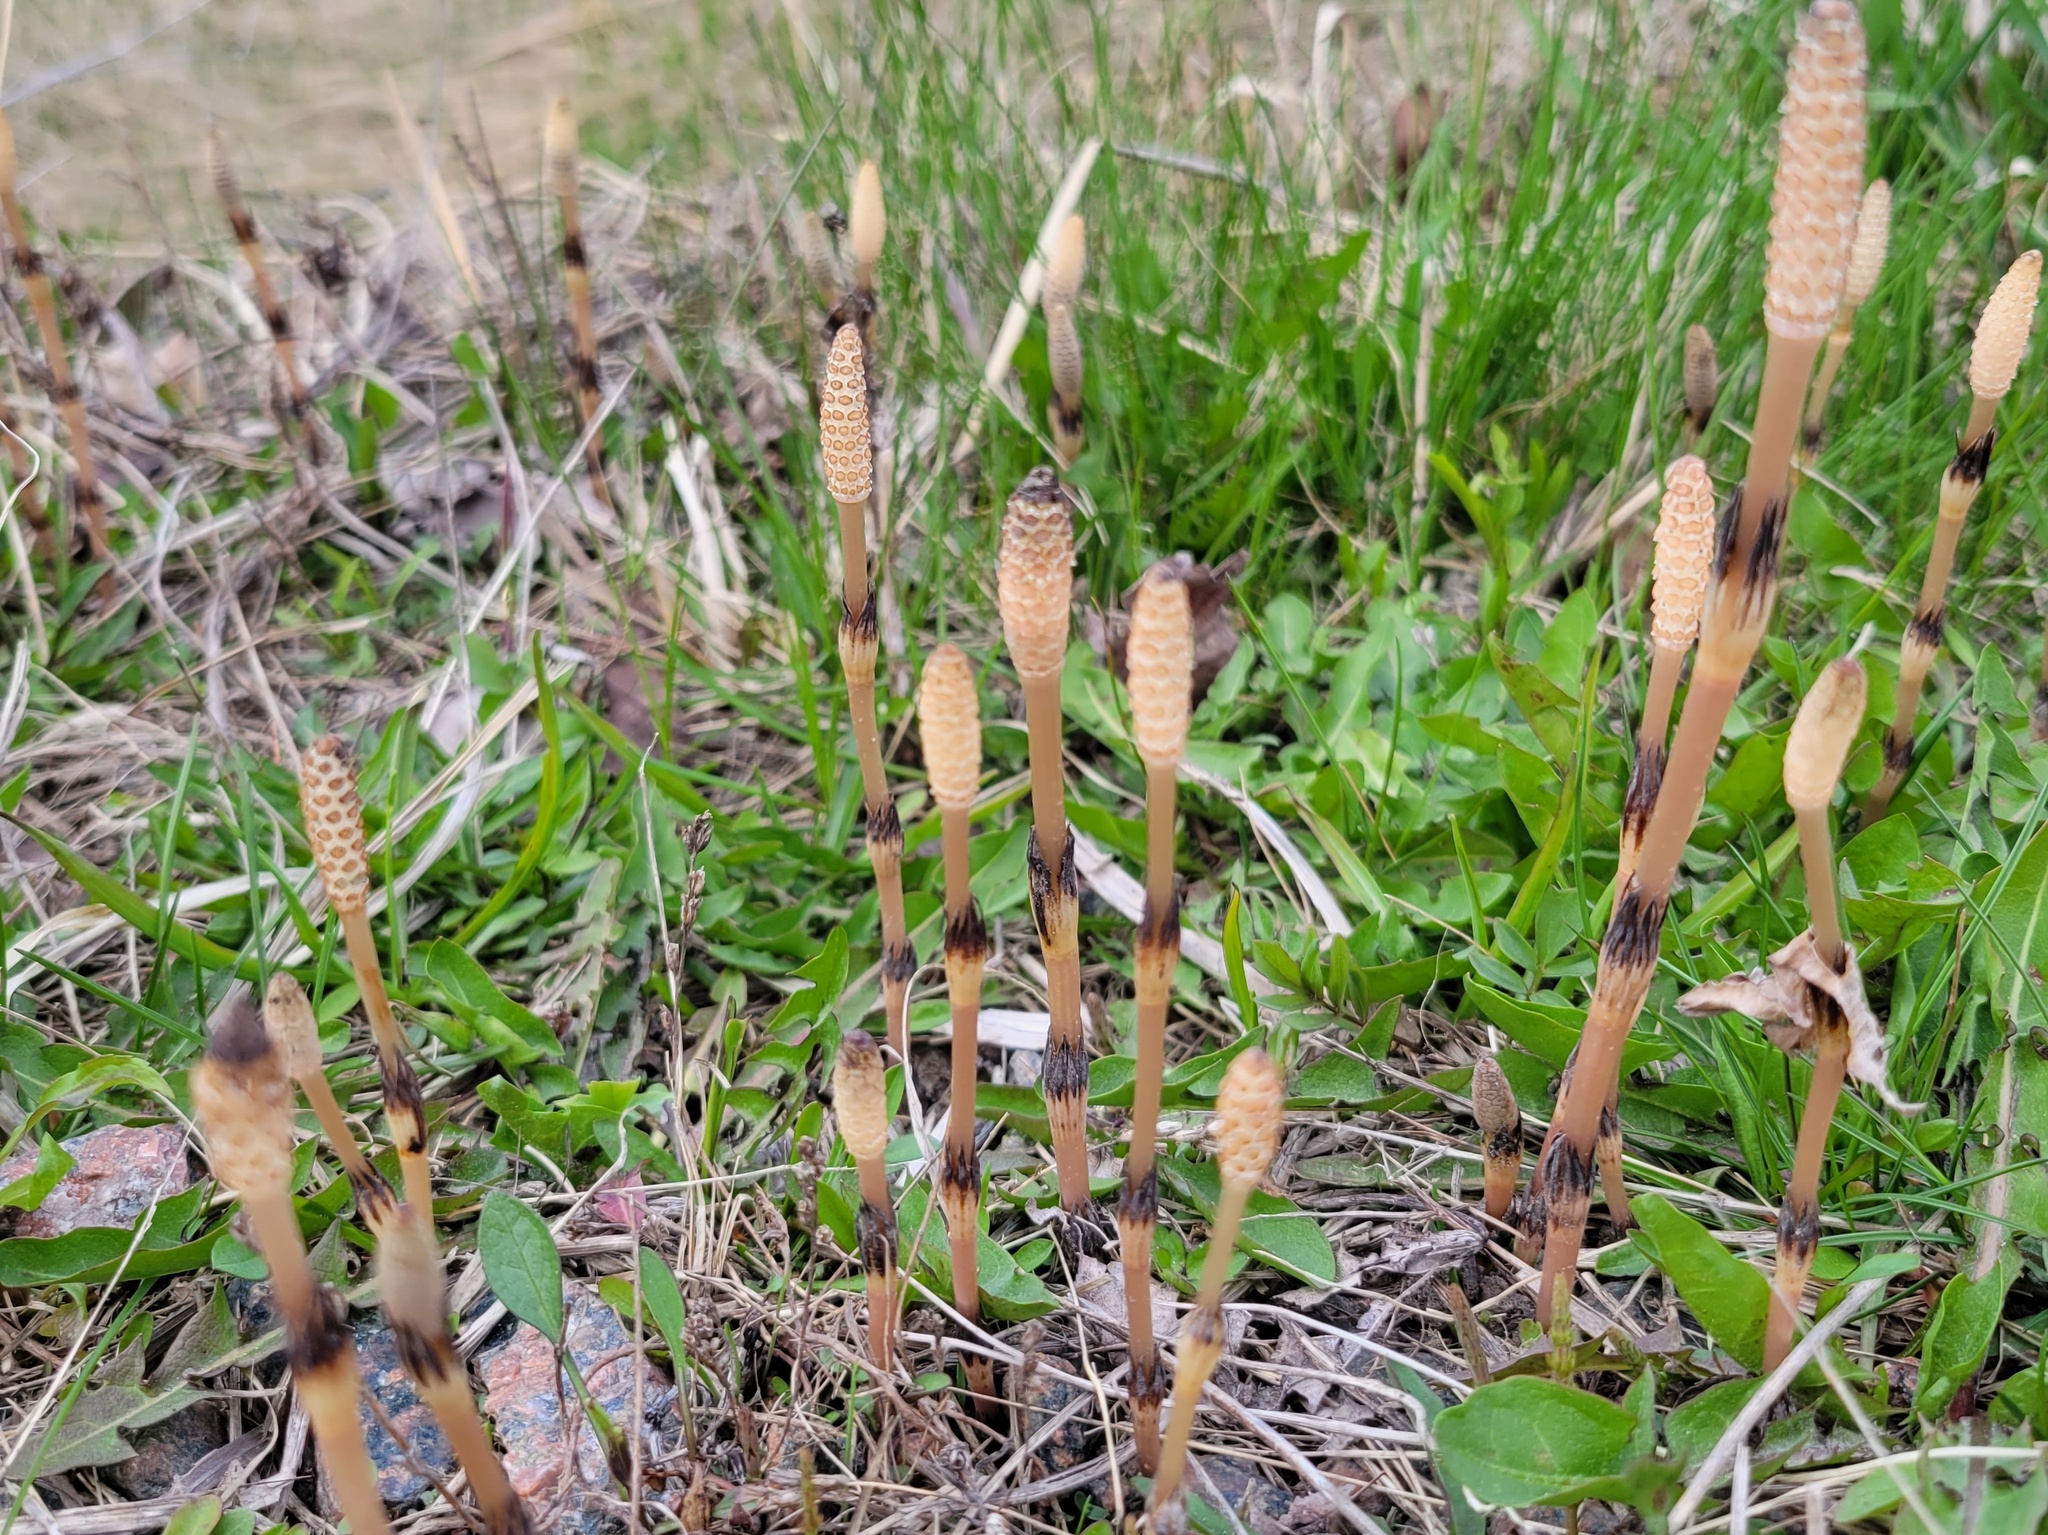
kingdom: Plantae
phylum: Tracheophyta
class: Polypodiopsida
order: Equisetales
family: Equisetaceae
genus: Equisetum
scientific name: Equisetum arvense
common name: Field horsetail
